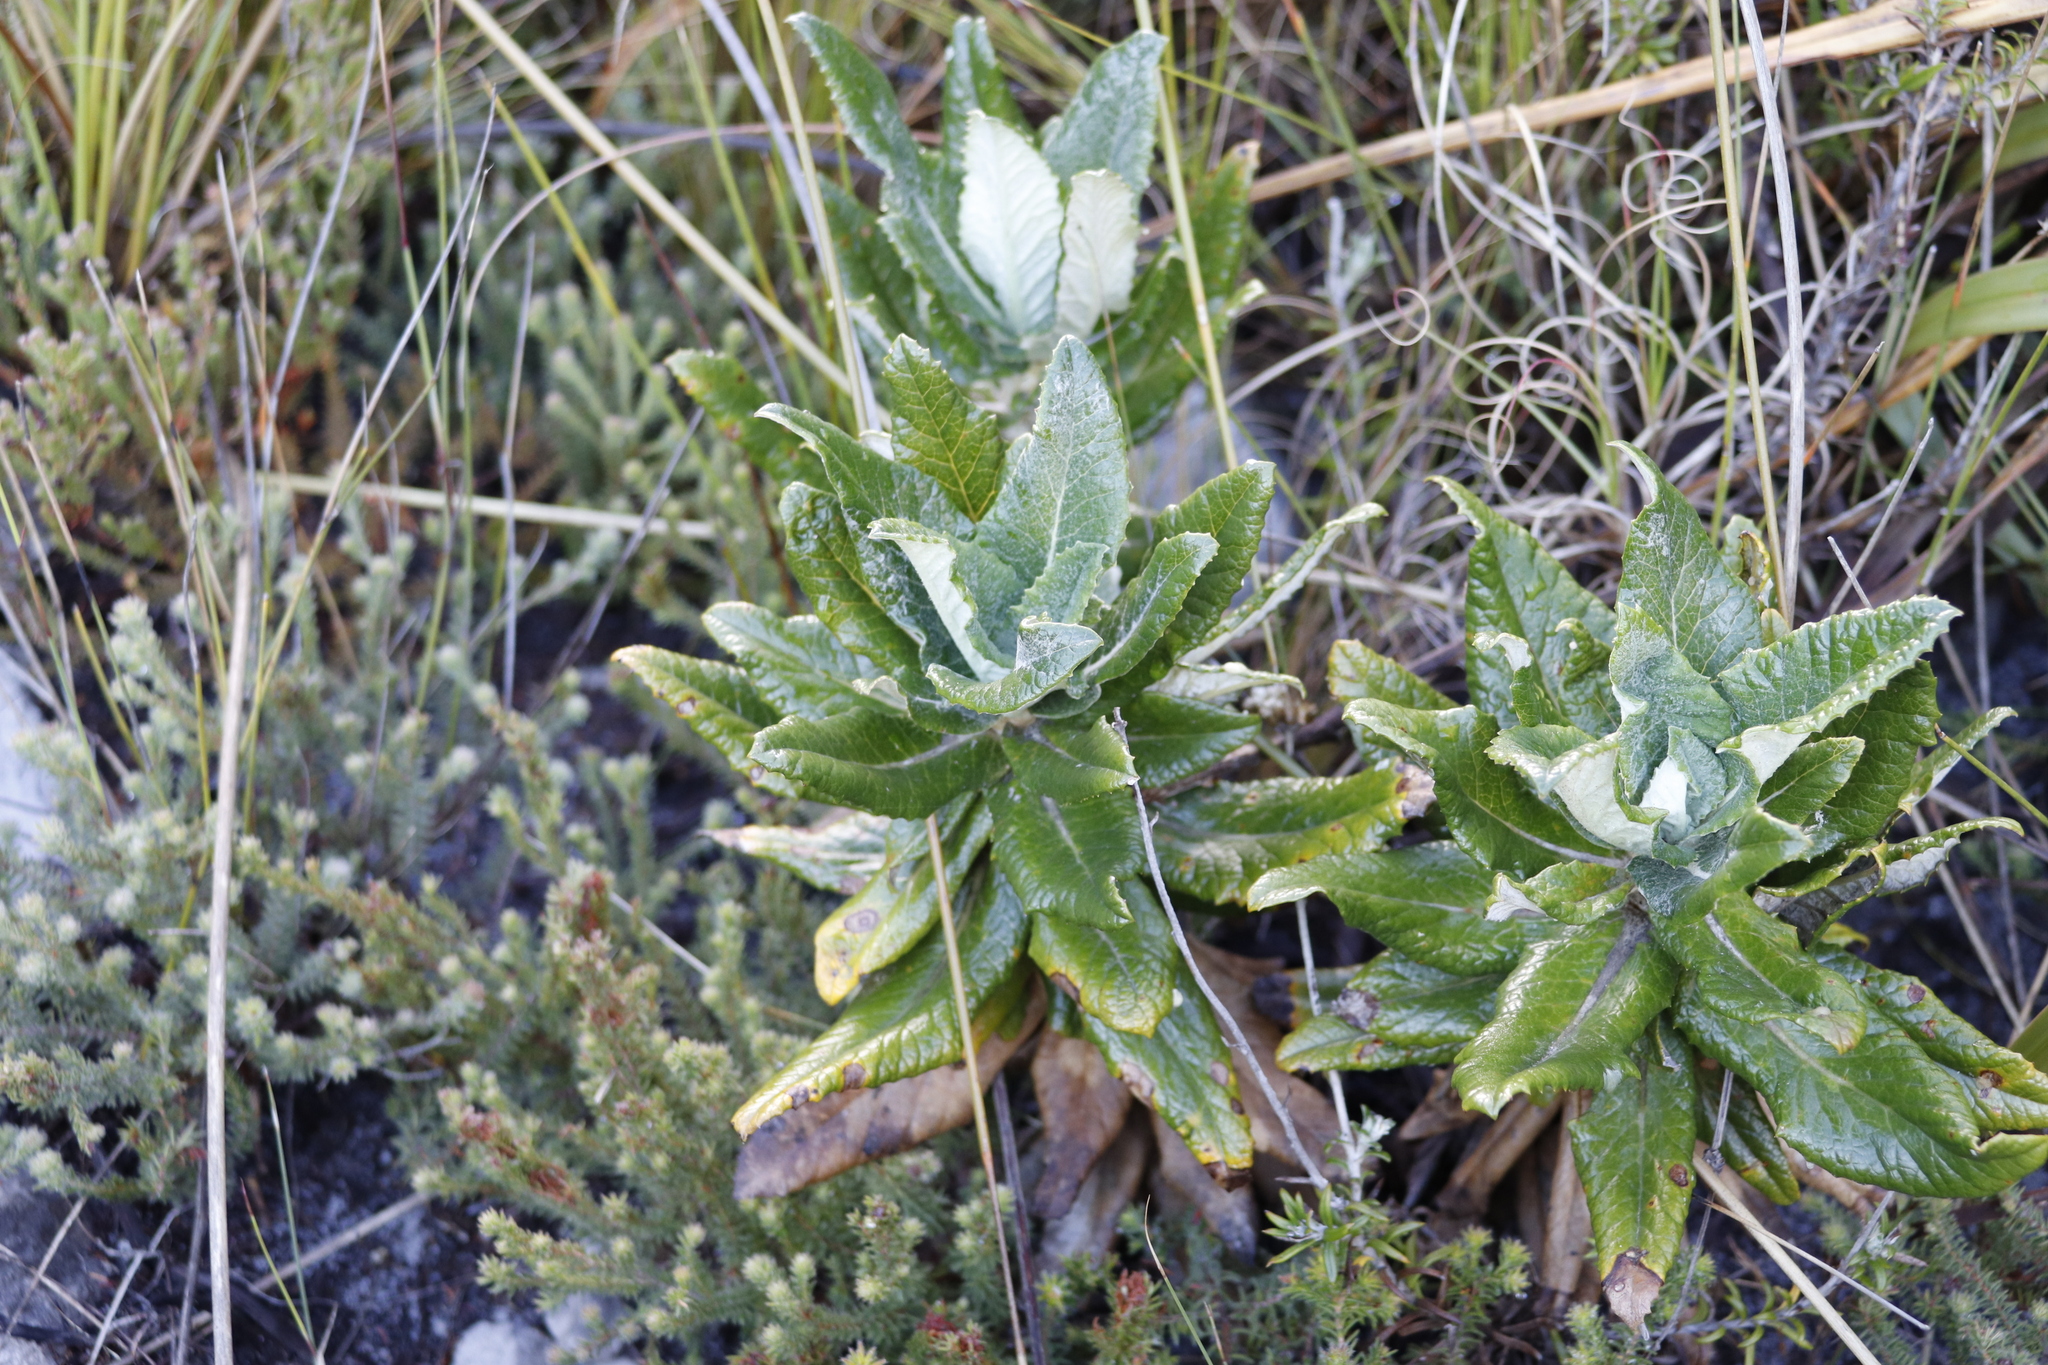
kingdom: Plantae
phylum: Tracheophyta
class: Magnoliopsida
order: Apiales
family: Apiaceae
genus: Hermas
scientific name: Hermas villosa
